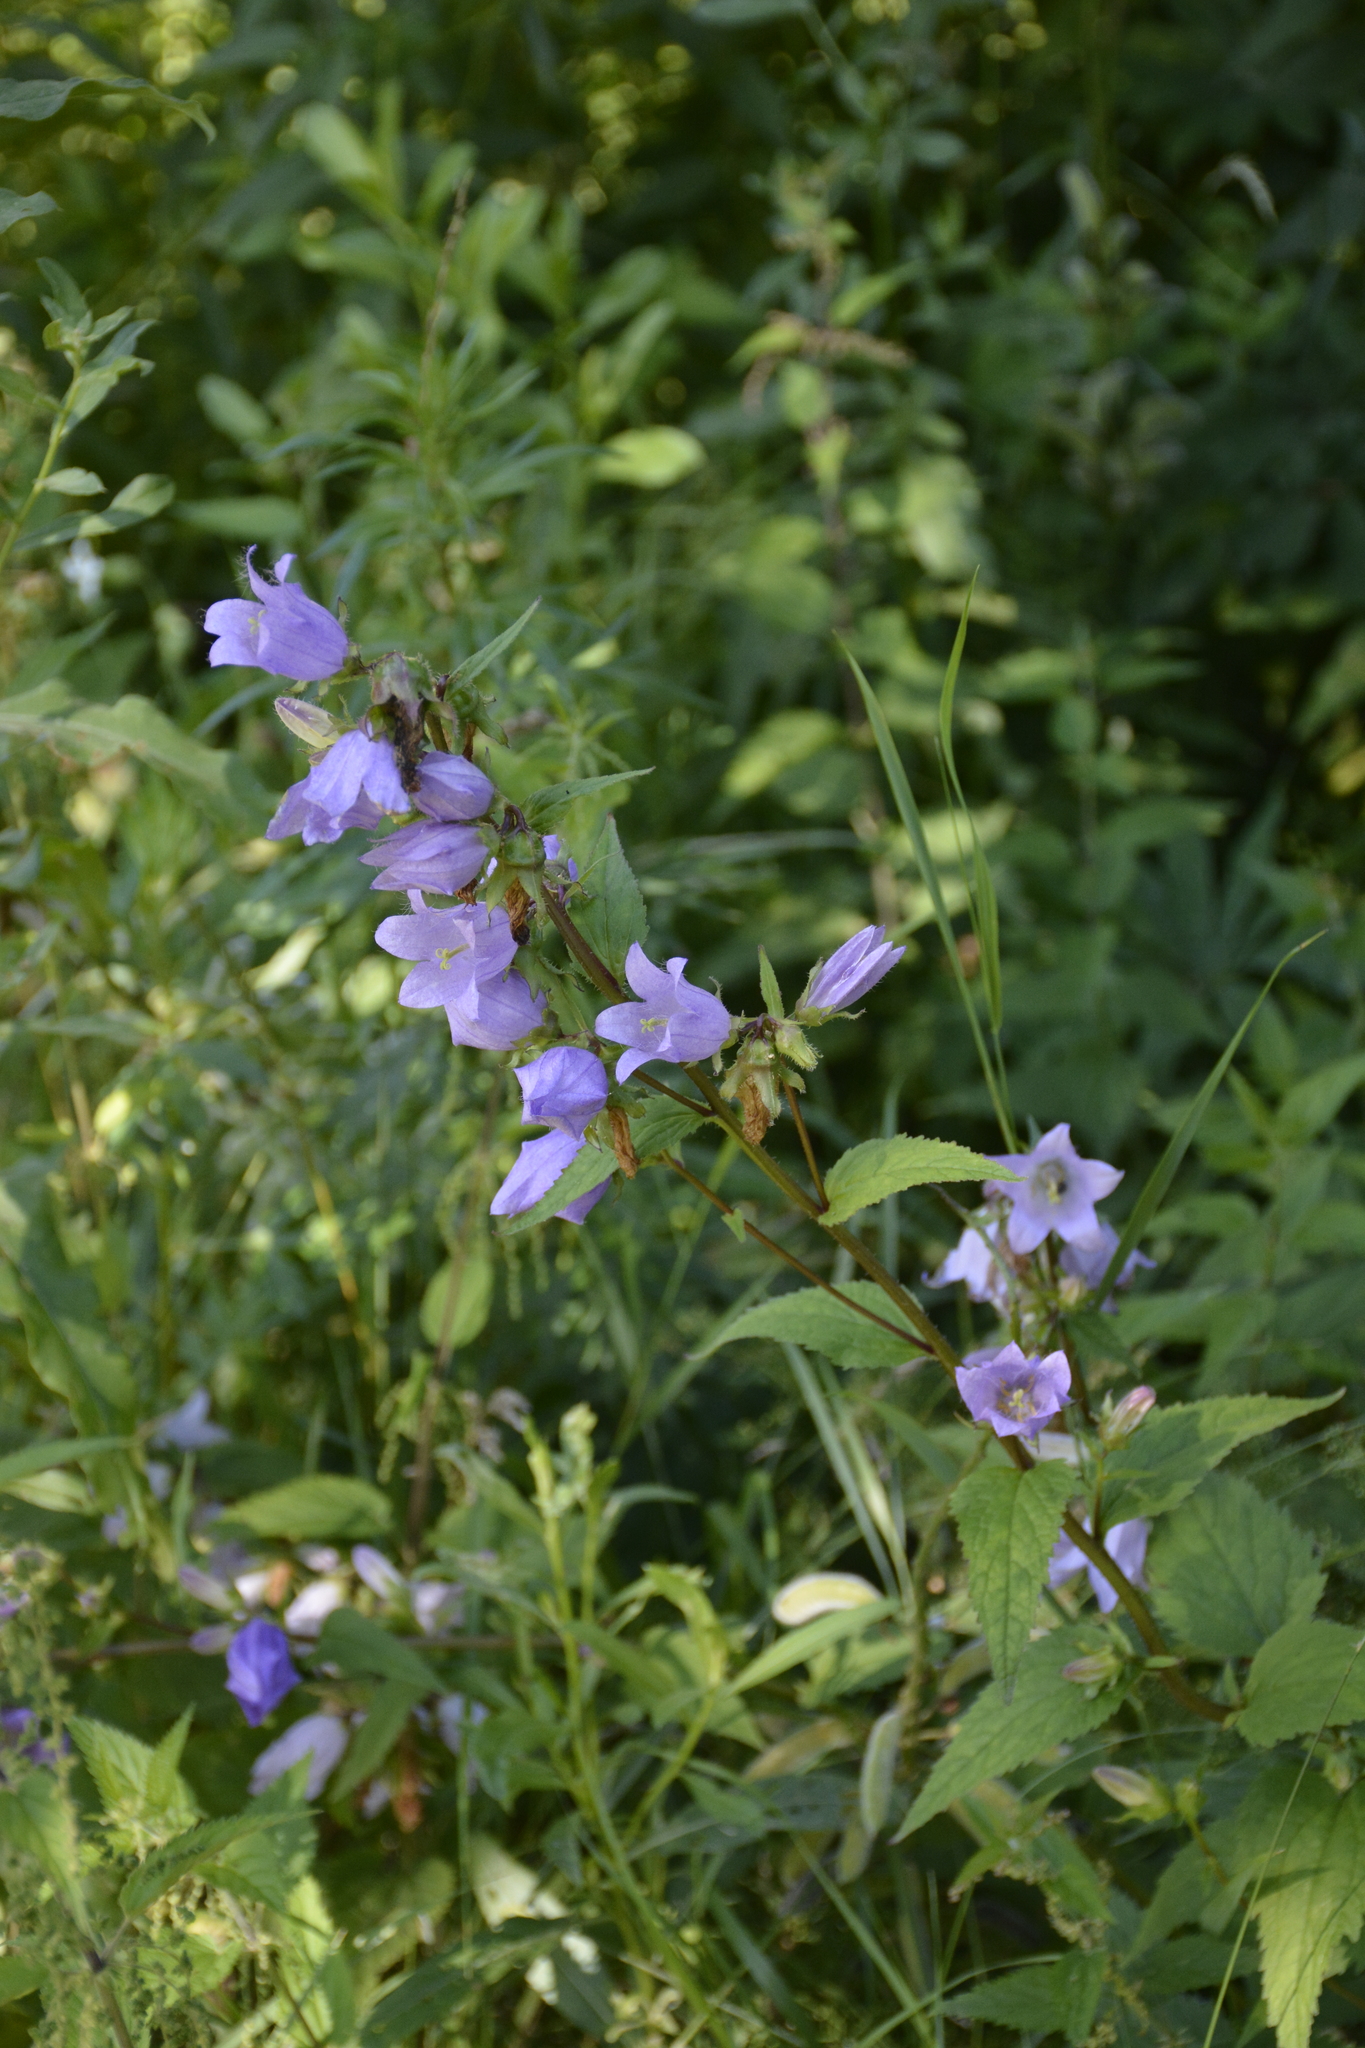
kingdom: Plantae
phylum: Tracheophyta
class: Magnoliopsida
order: Asterales
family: Campanulaceae
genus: Campanula
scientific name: Campanula trachelium
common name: Nettle-leaved bellflower
